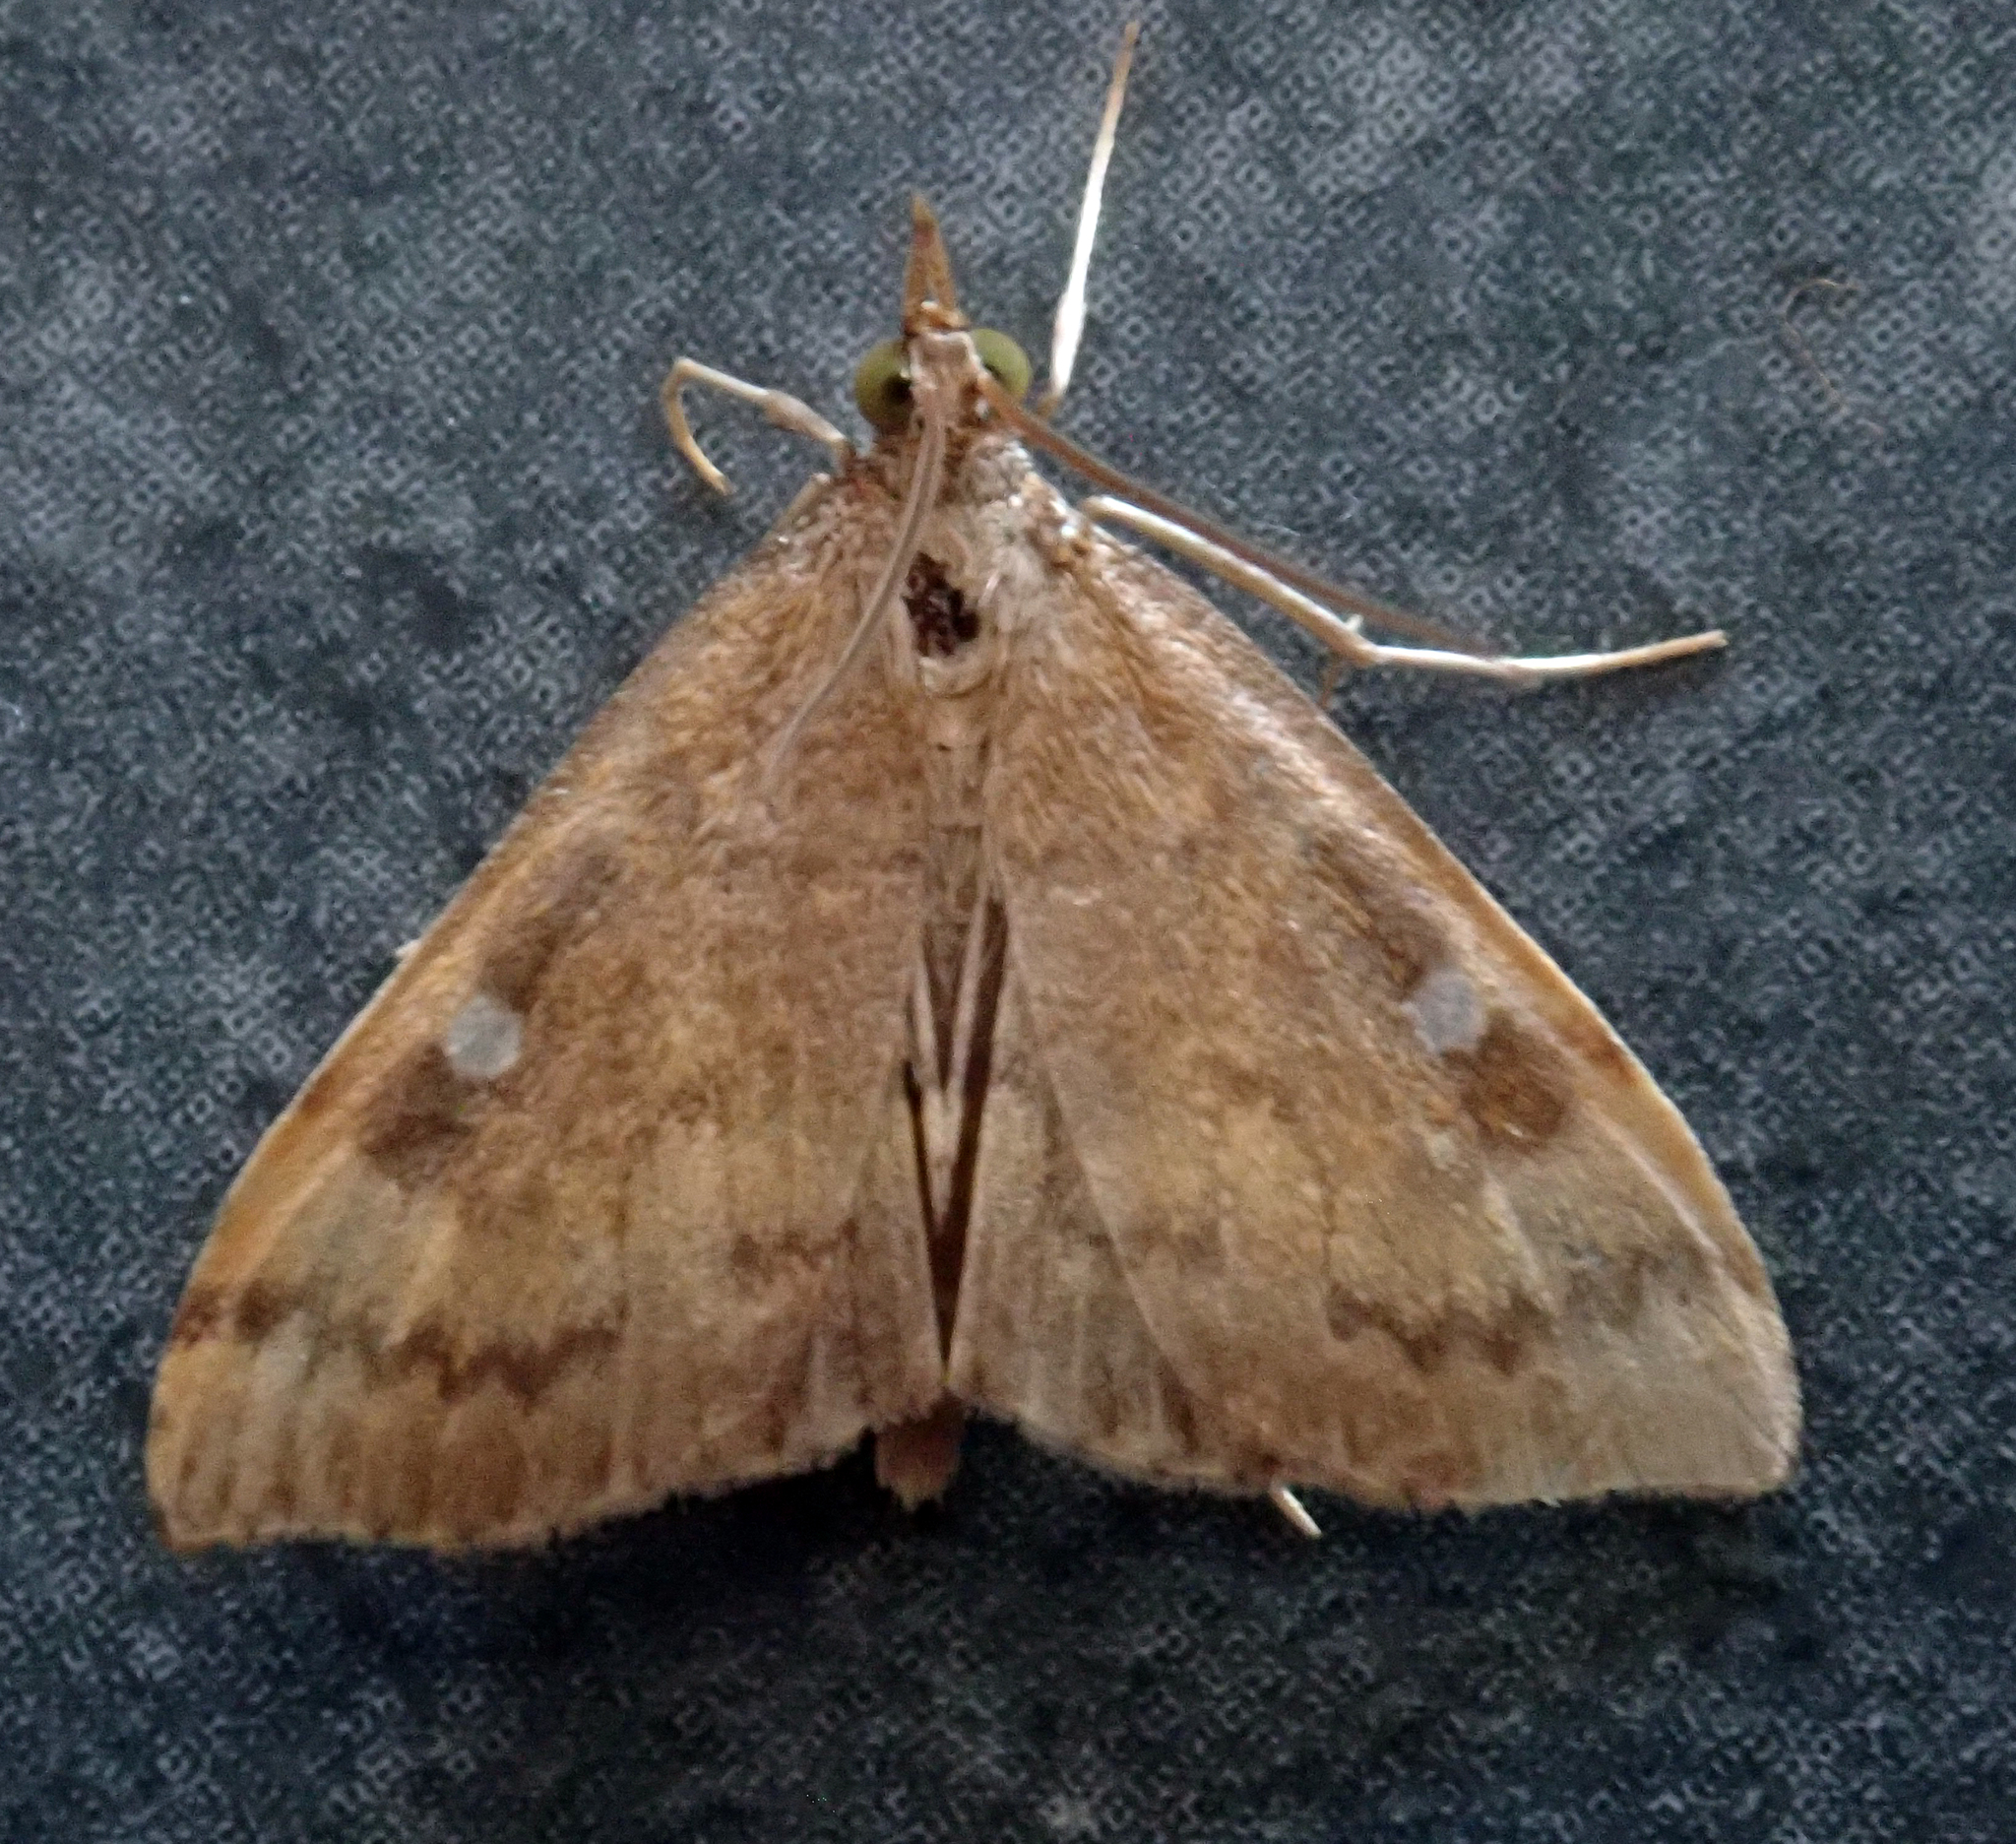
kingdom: Animalia
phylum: Arthropoda
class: Insecta
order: Lepidoptera
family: Crambidae
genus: Udea
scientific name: Udea pantheropa
